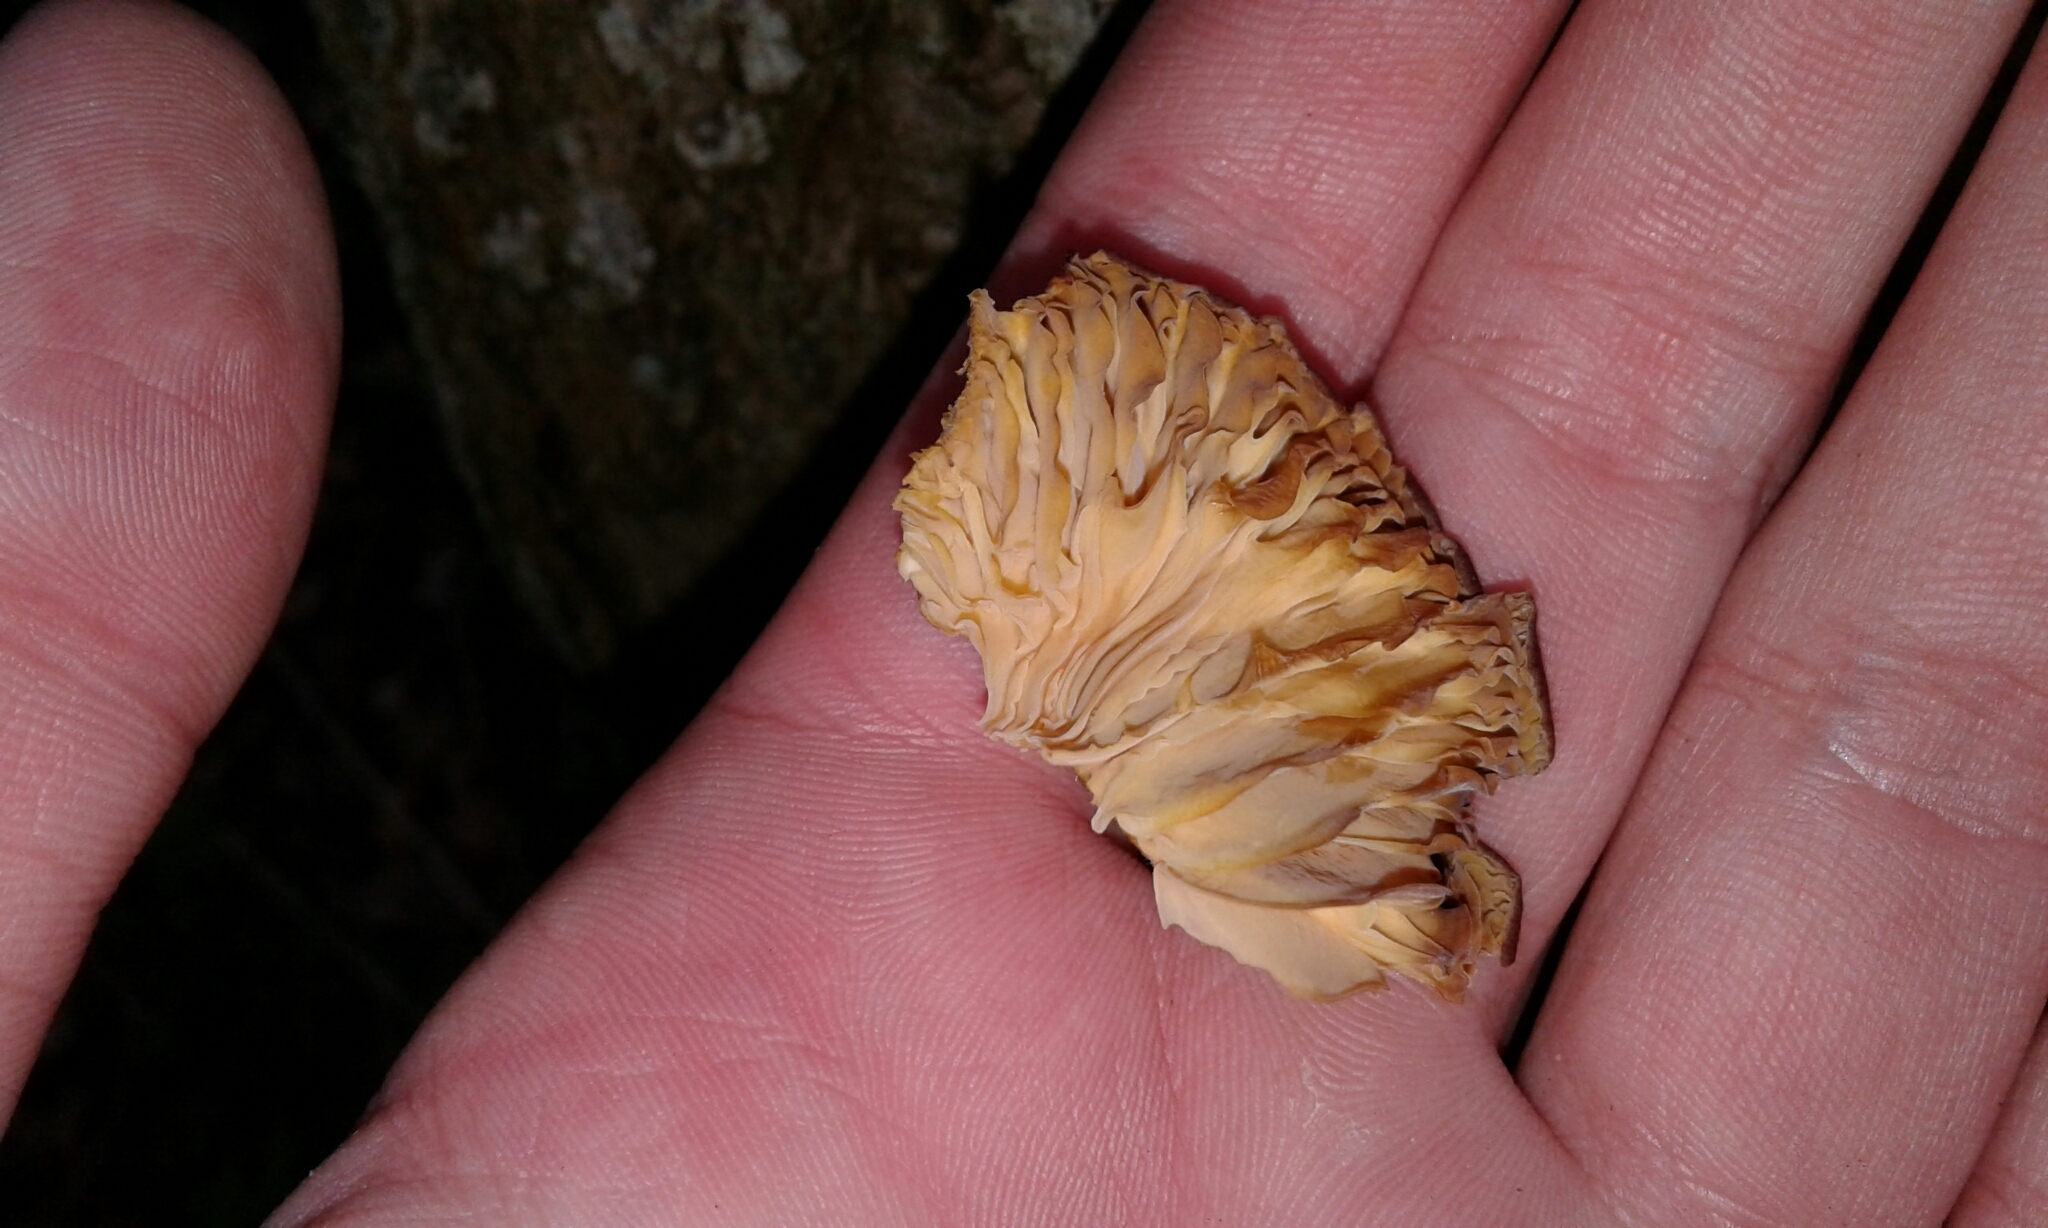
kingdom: Fungi
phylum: Basidiomycota
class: Agaricomycetes
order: Agaricales
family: Physalacriaceae
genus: Flammulina
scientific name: Flammulina velutipes
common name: Velvet shank
